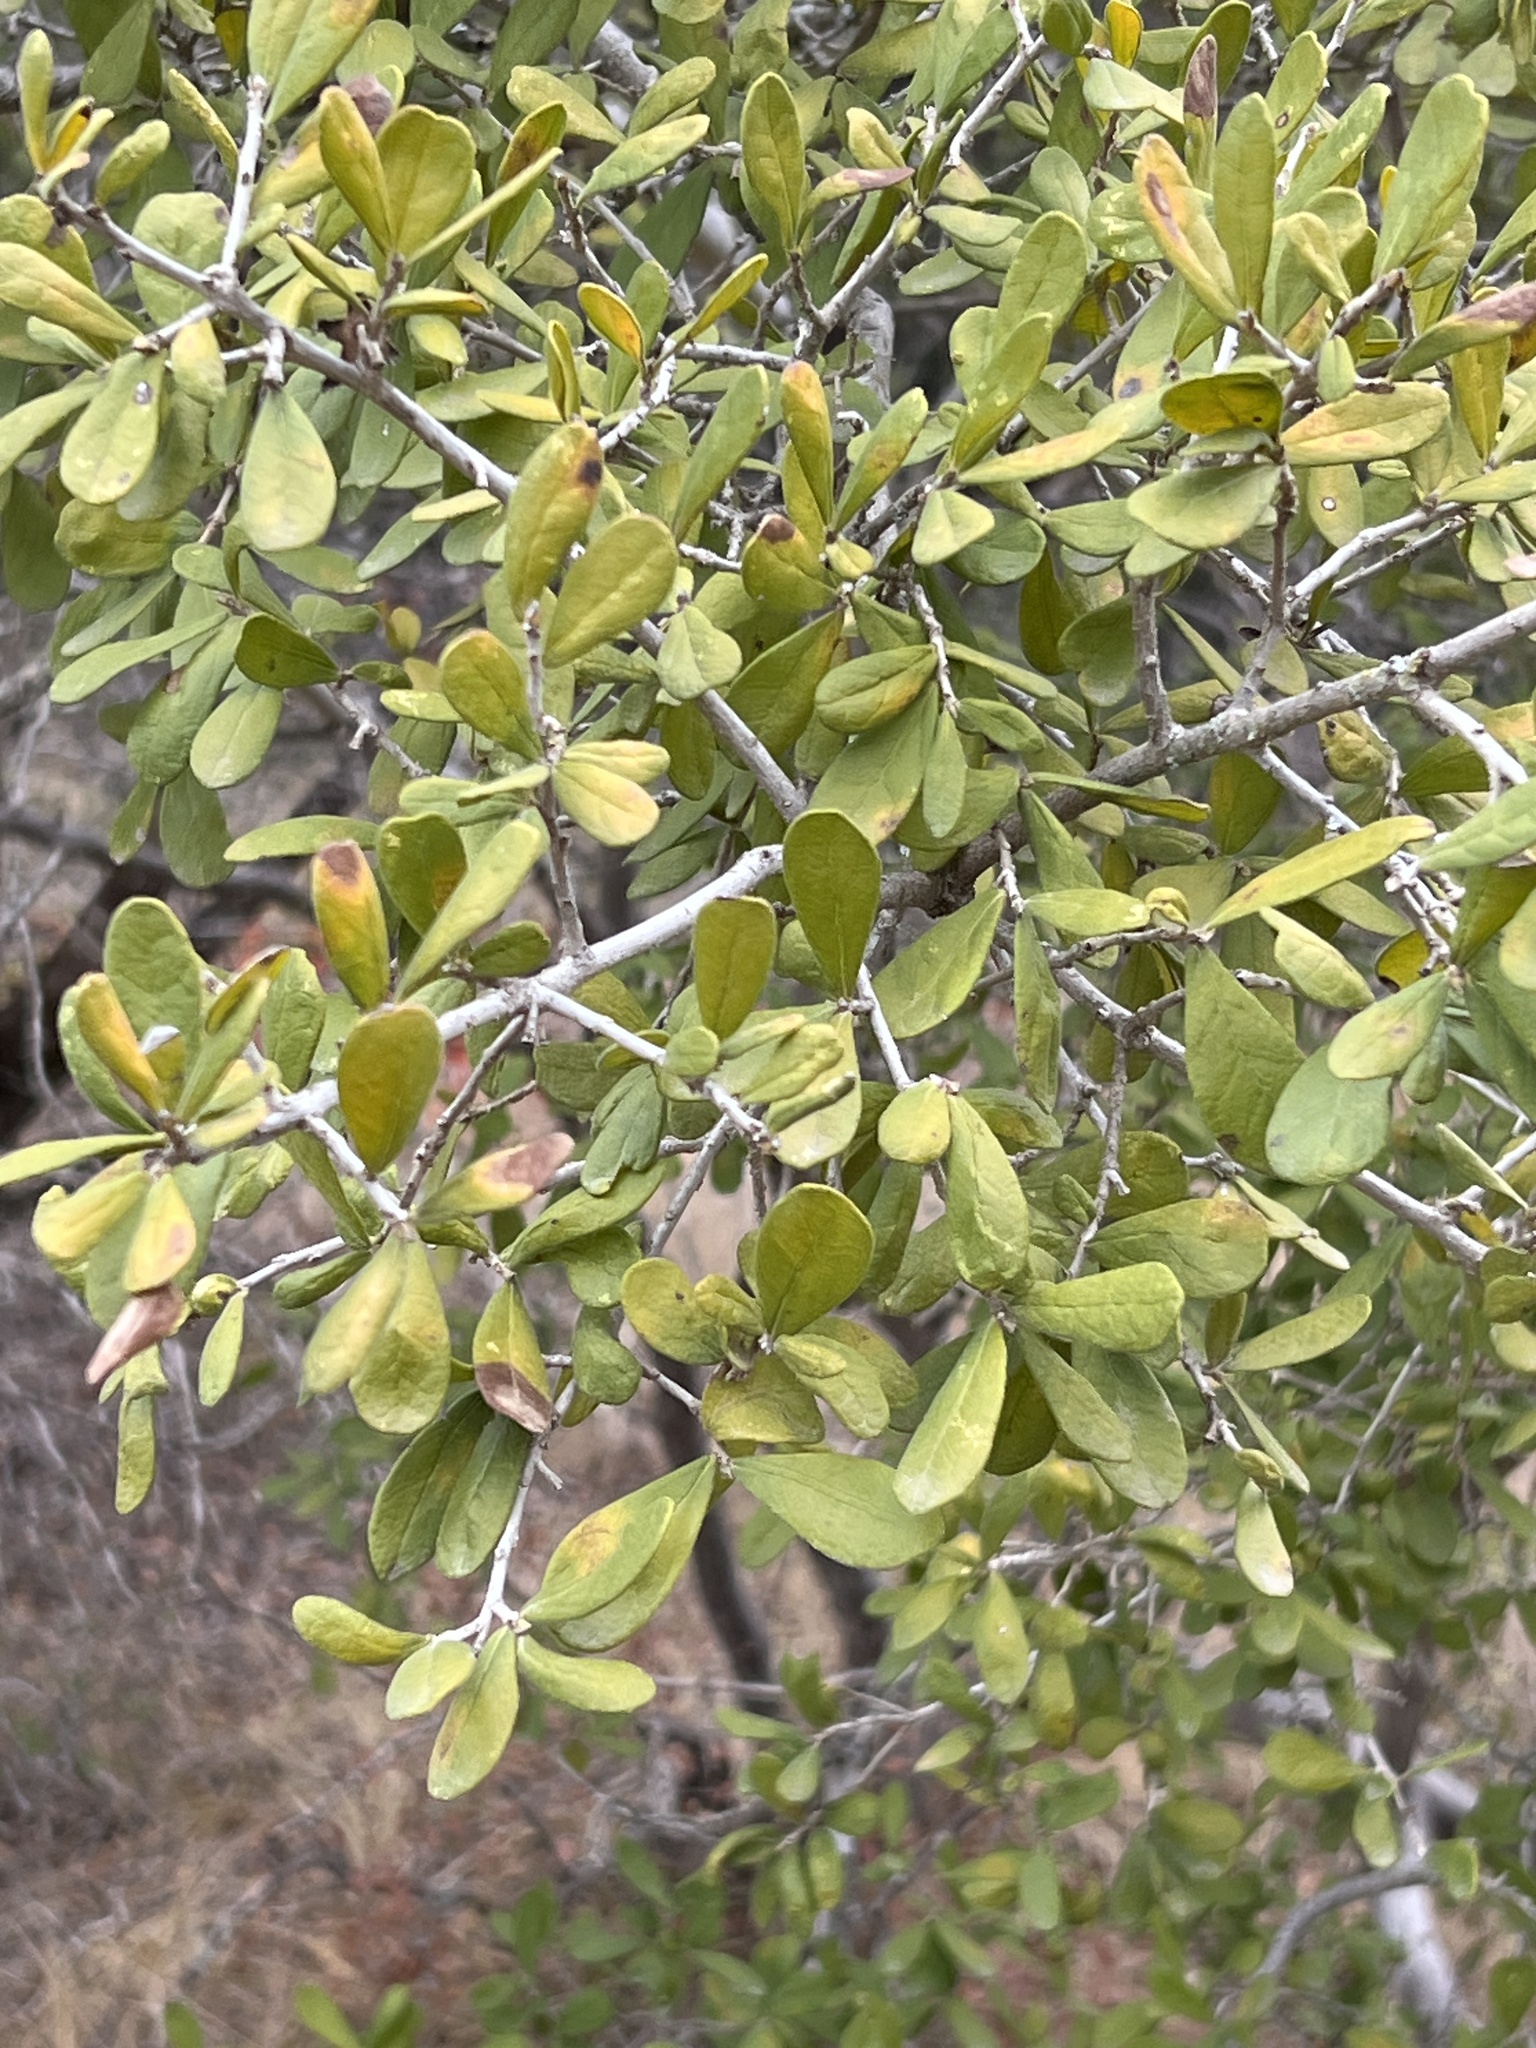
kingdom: Plantae
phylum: Tracheophyta
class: Magnoliopsida
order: Ericales
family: Ebenaceae
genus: Diospyros
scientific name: Diospyros texana
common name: Texas persimmon
